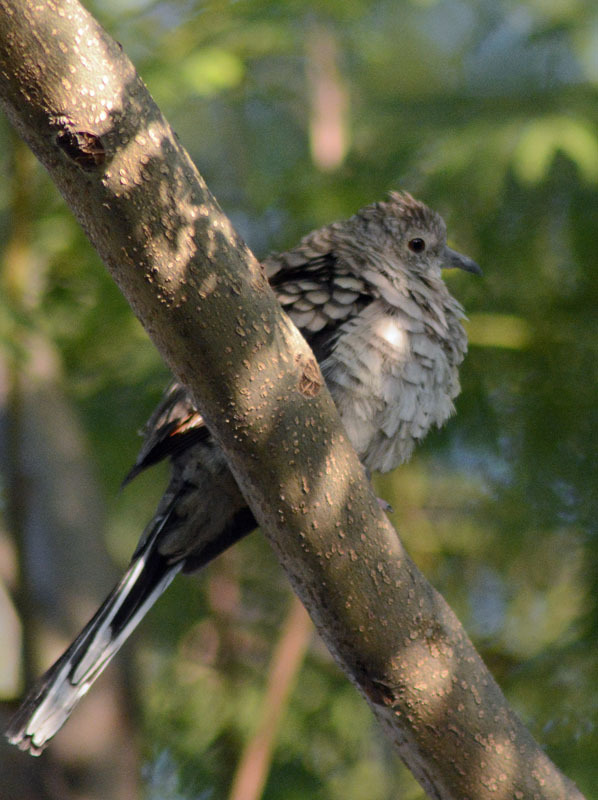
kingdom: Animalia
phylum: Chordata
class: Aves
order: Columbiformes
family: Columbidae
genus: Columbina
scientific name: Columbina inca
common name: Inca dove
